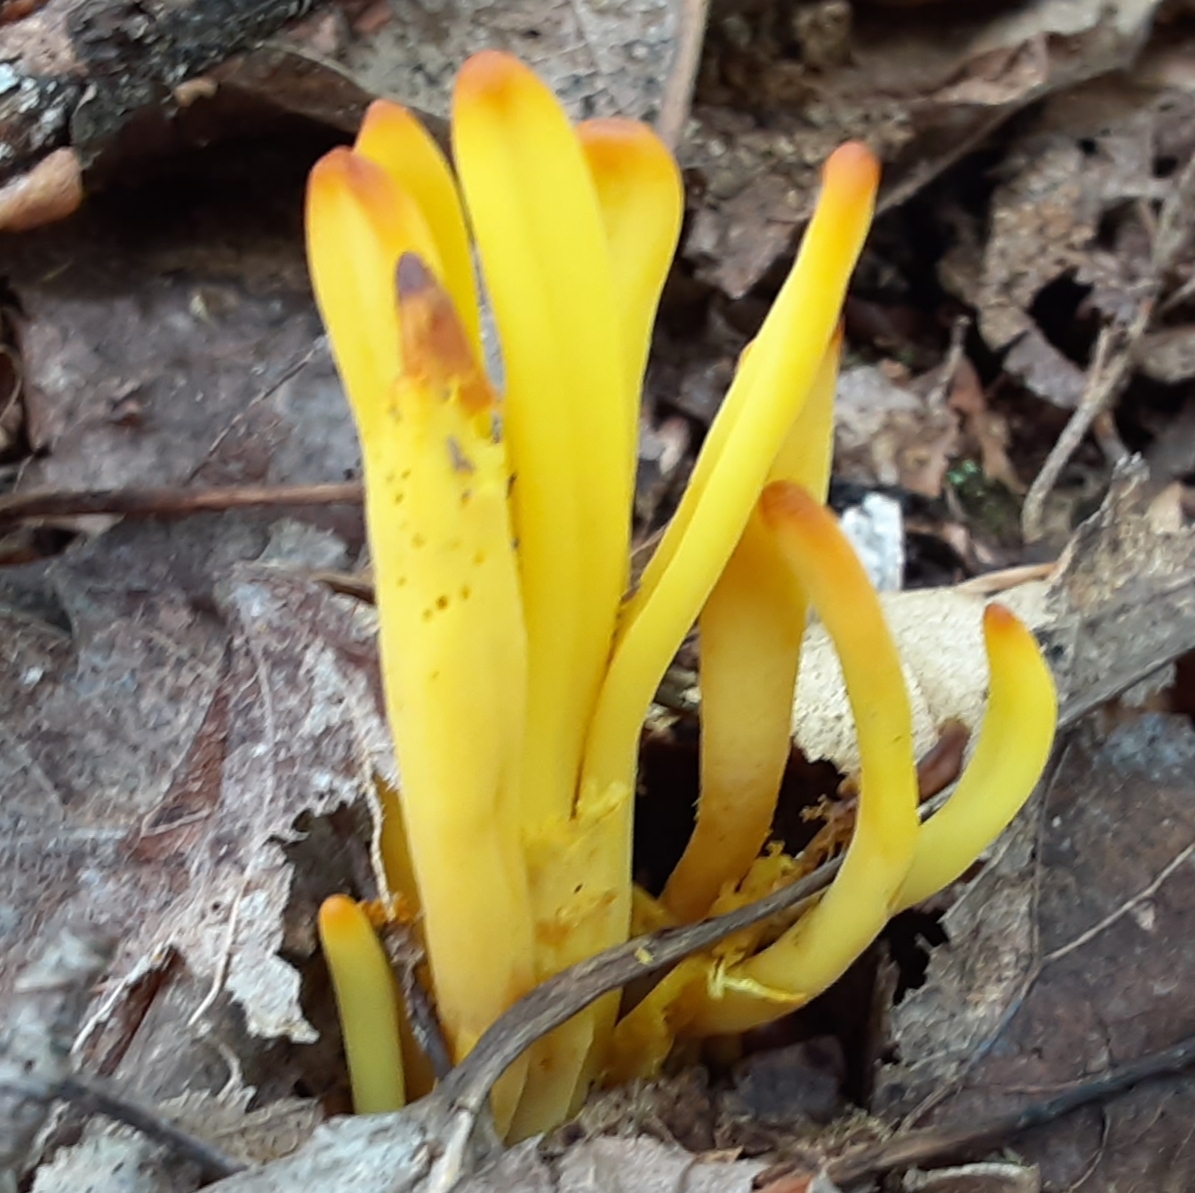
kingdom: Fungi
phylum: Basidiomycota
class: Agaricomycetes
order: Agaricales
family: Clavariaceae
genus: Clavulinopsis
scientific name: Clavulinopsis fusiformis
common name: Golden spindles
